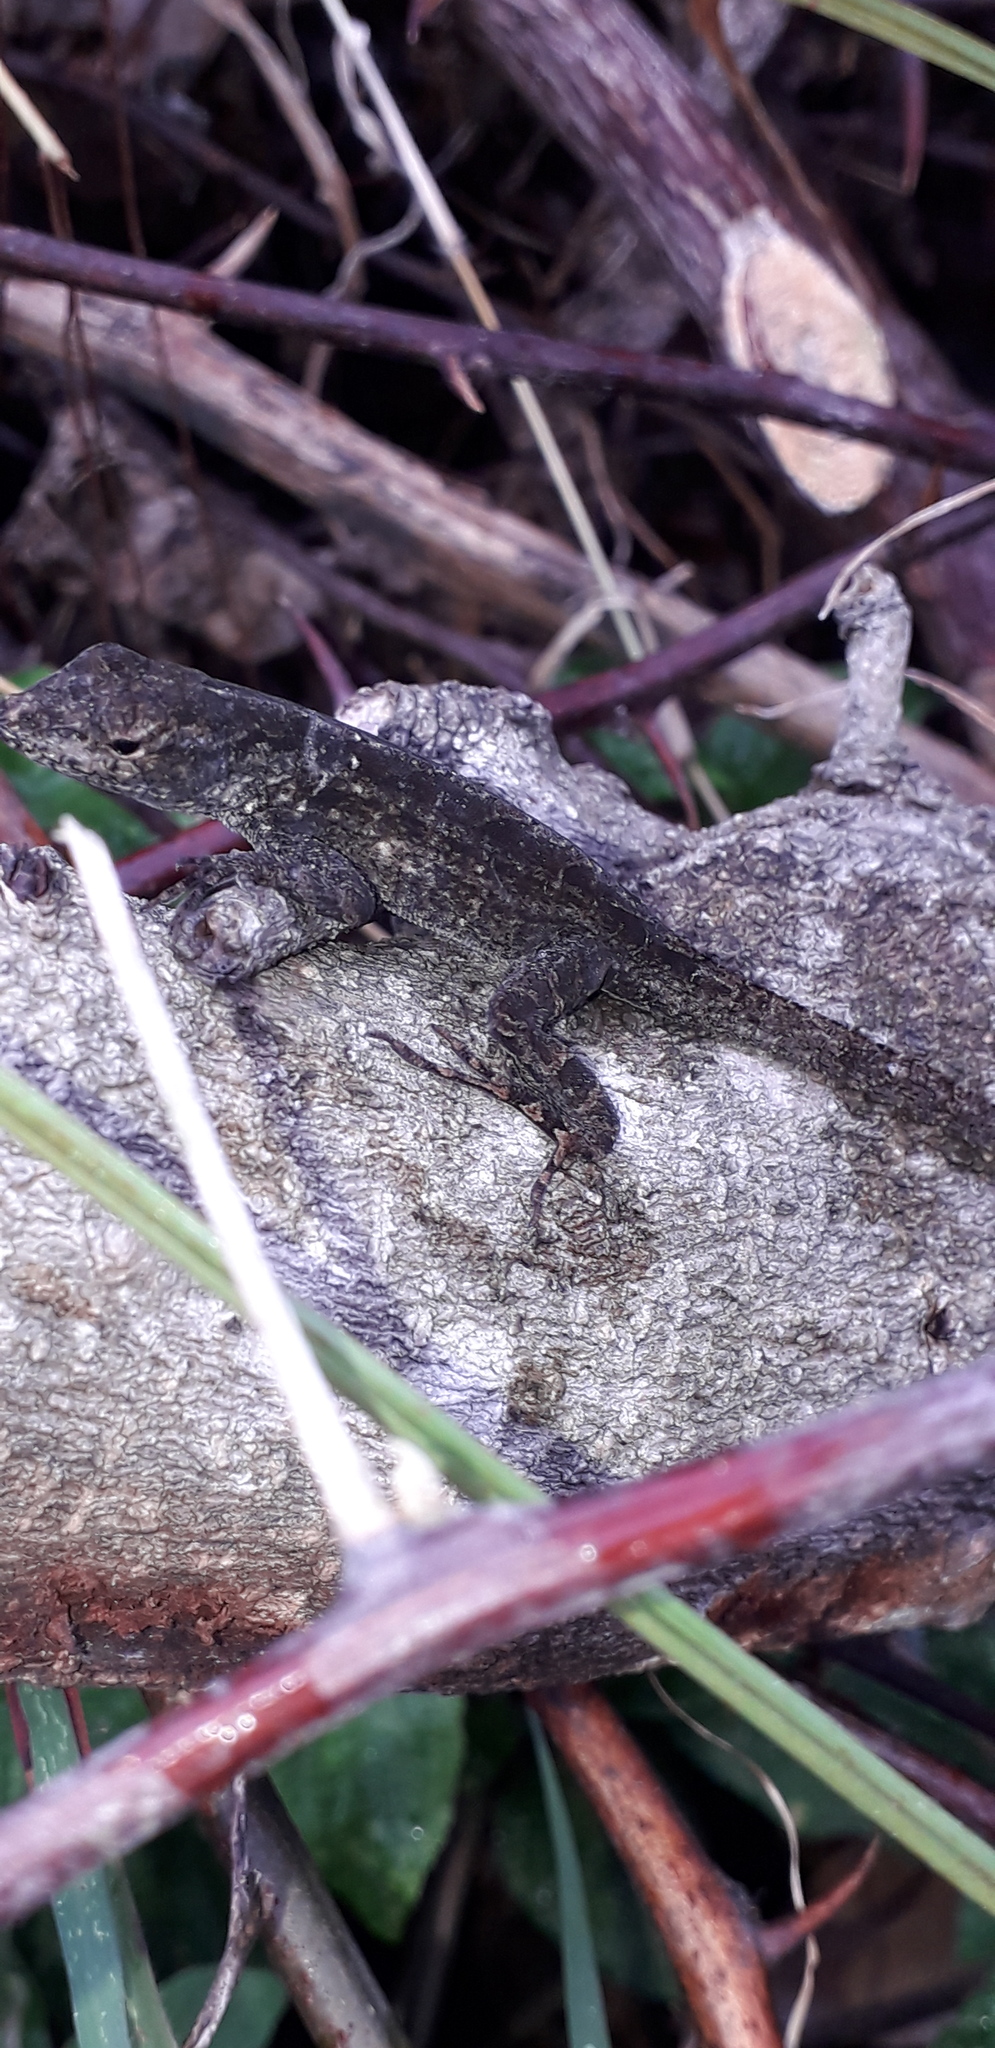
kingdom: Animalia
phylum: Chordata
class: Squamata
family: Dactyloidae
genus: Anolis
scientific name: Anolis sagrei
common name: Brown anole
